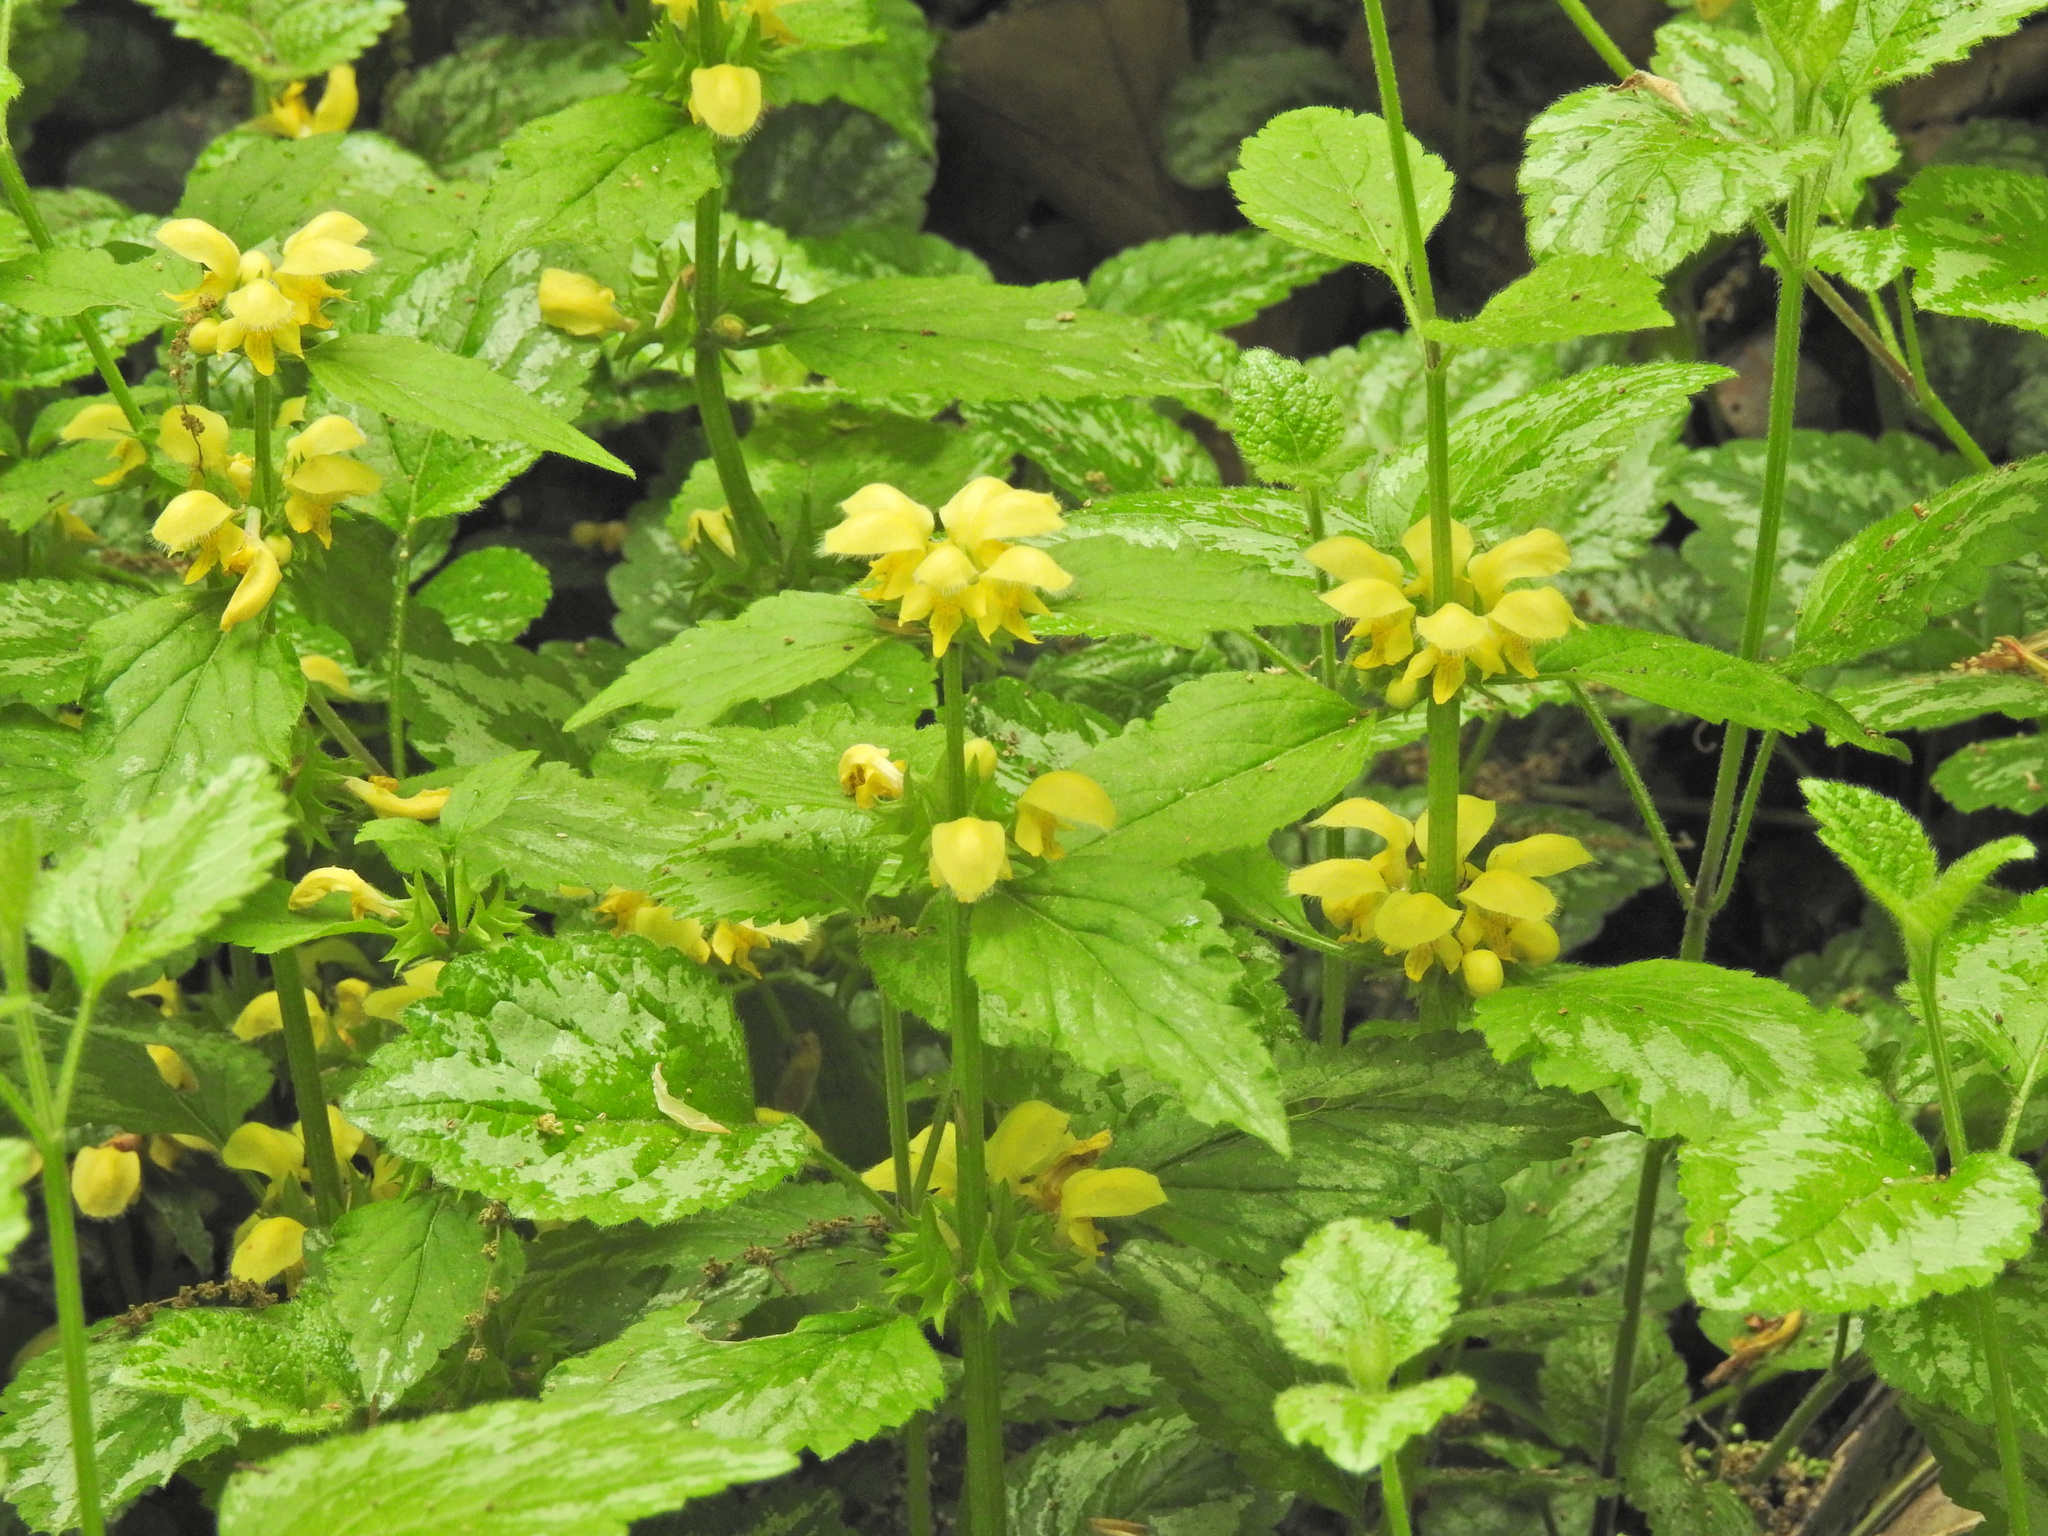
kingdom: Plantae
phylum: Tracheophyta
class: Magnoliopsida
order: Lamiales
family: Lamiaceae
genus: Lamium
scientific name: Lamium galeobdolon
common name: Yellow archangel
